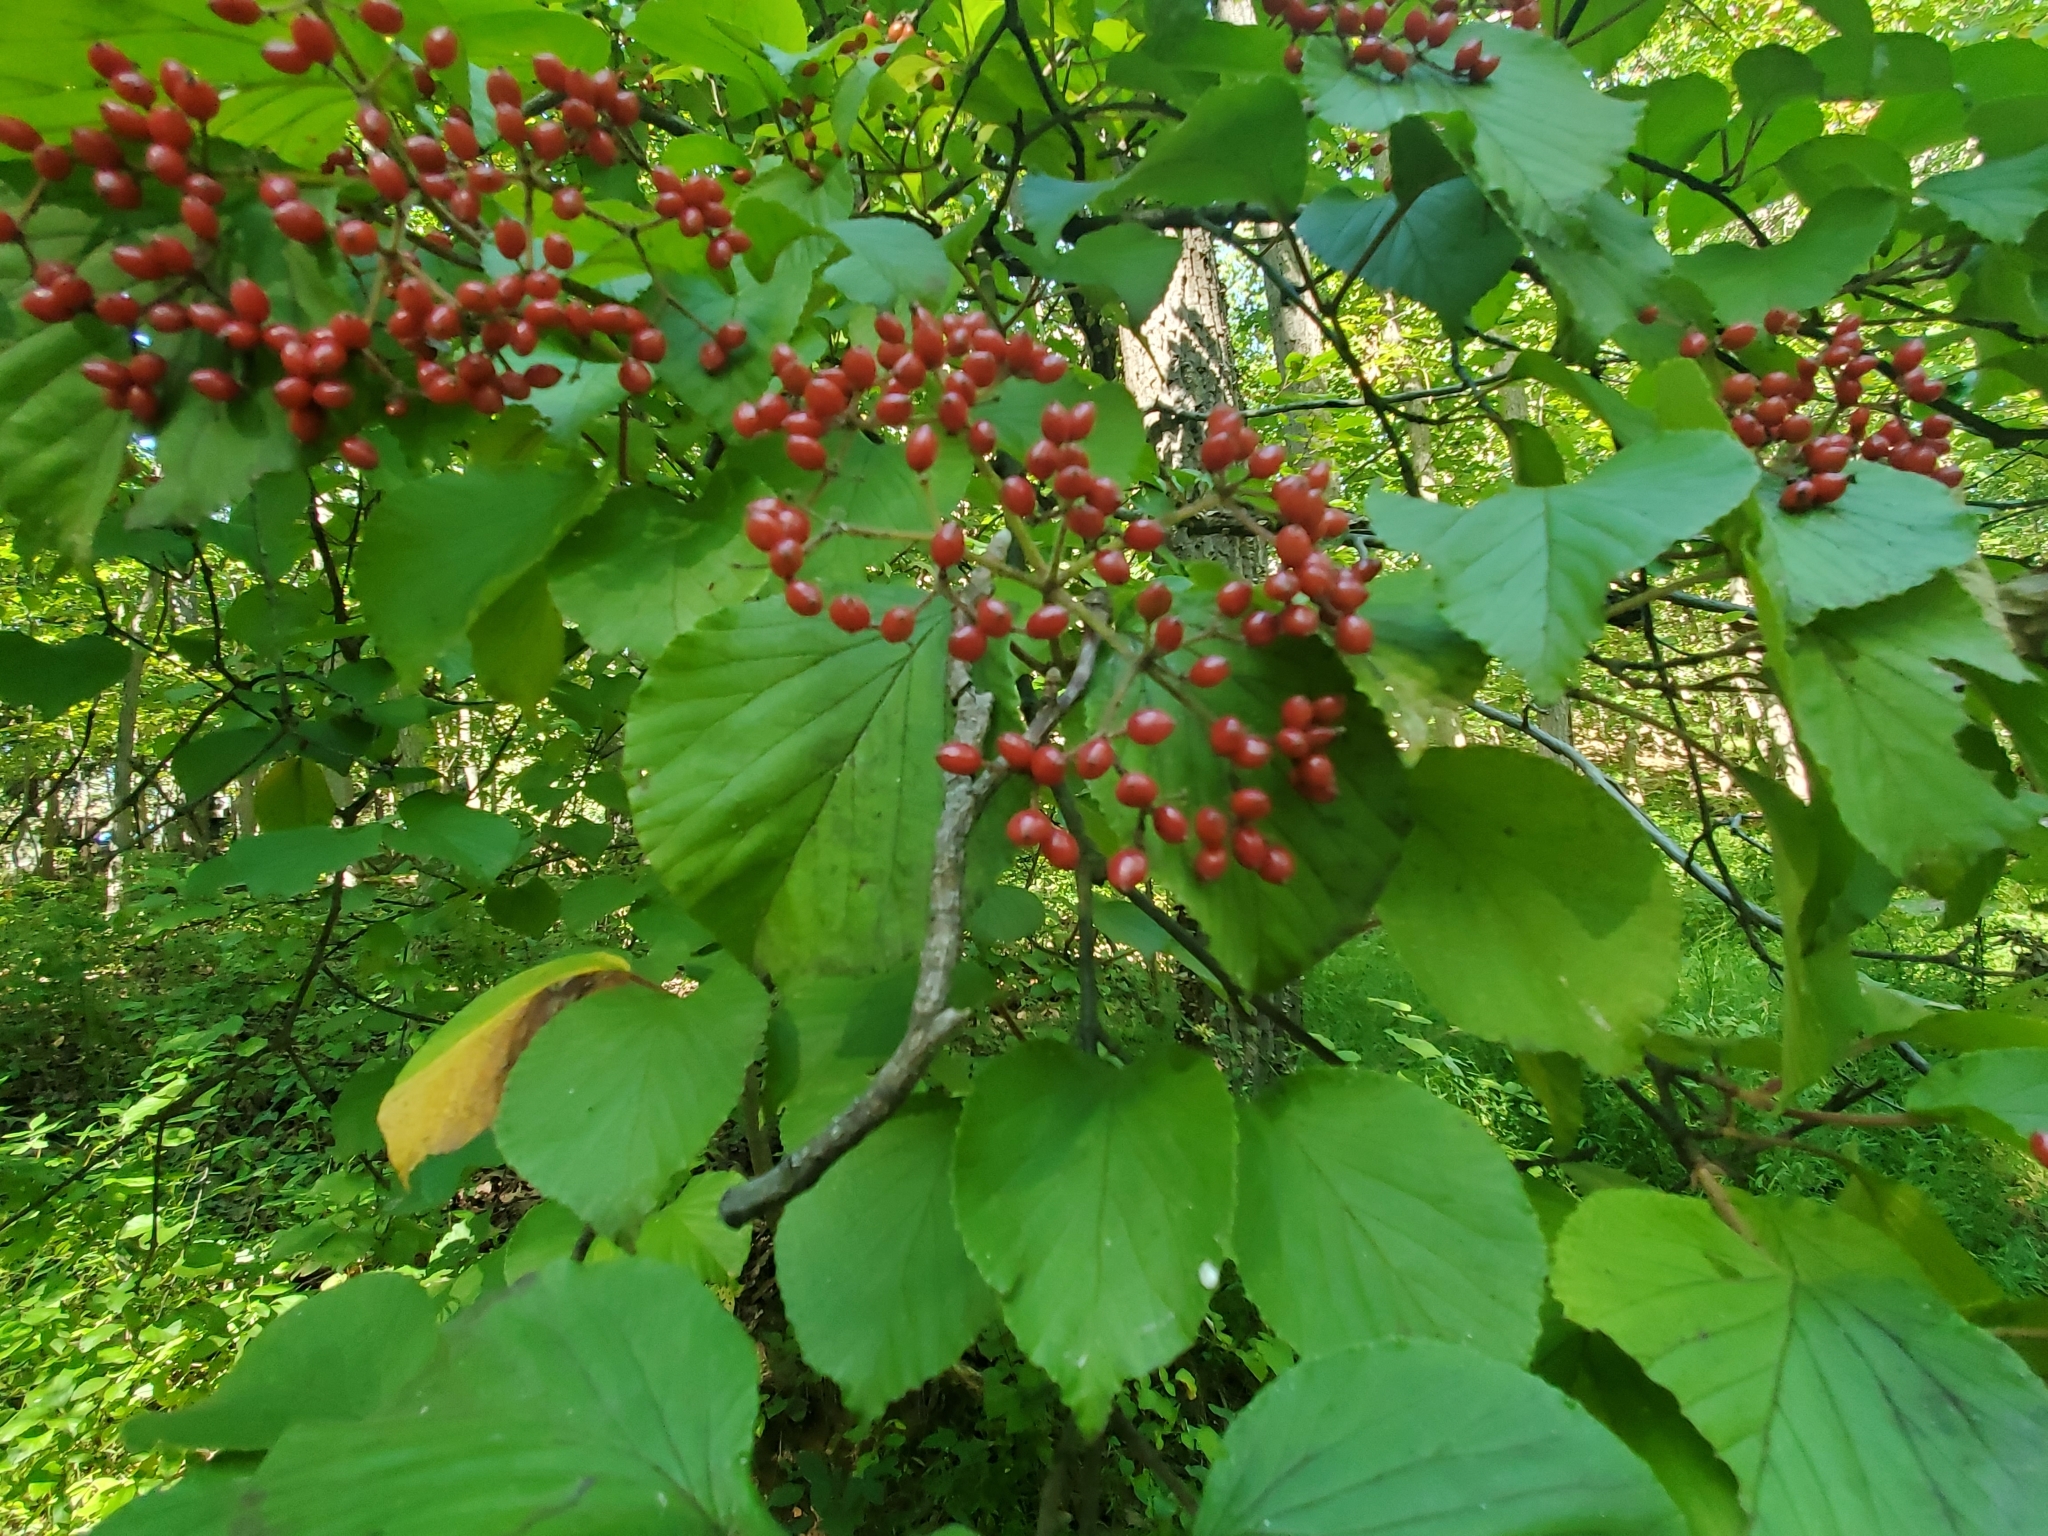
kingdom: Plantae
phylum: Tracheophyta
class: Magnoliopsida
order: Dipsacales
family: Viburnaceae
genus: Viburnum
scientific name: Viburnum dilatatum
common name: Linden arrowwood
